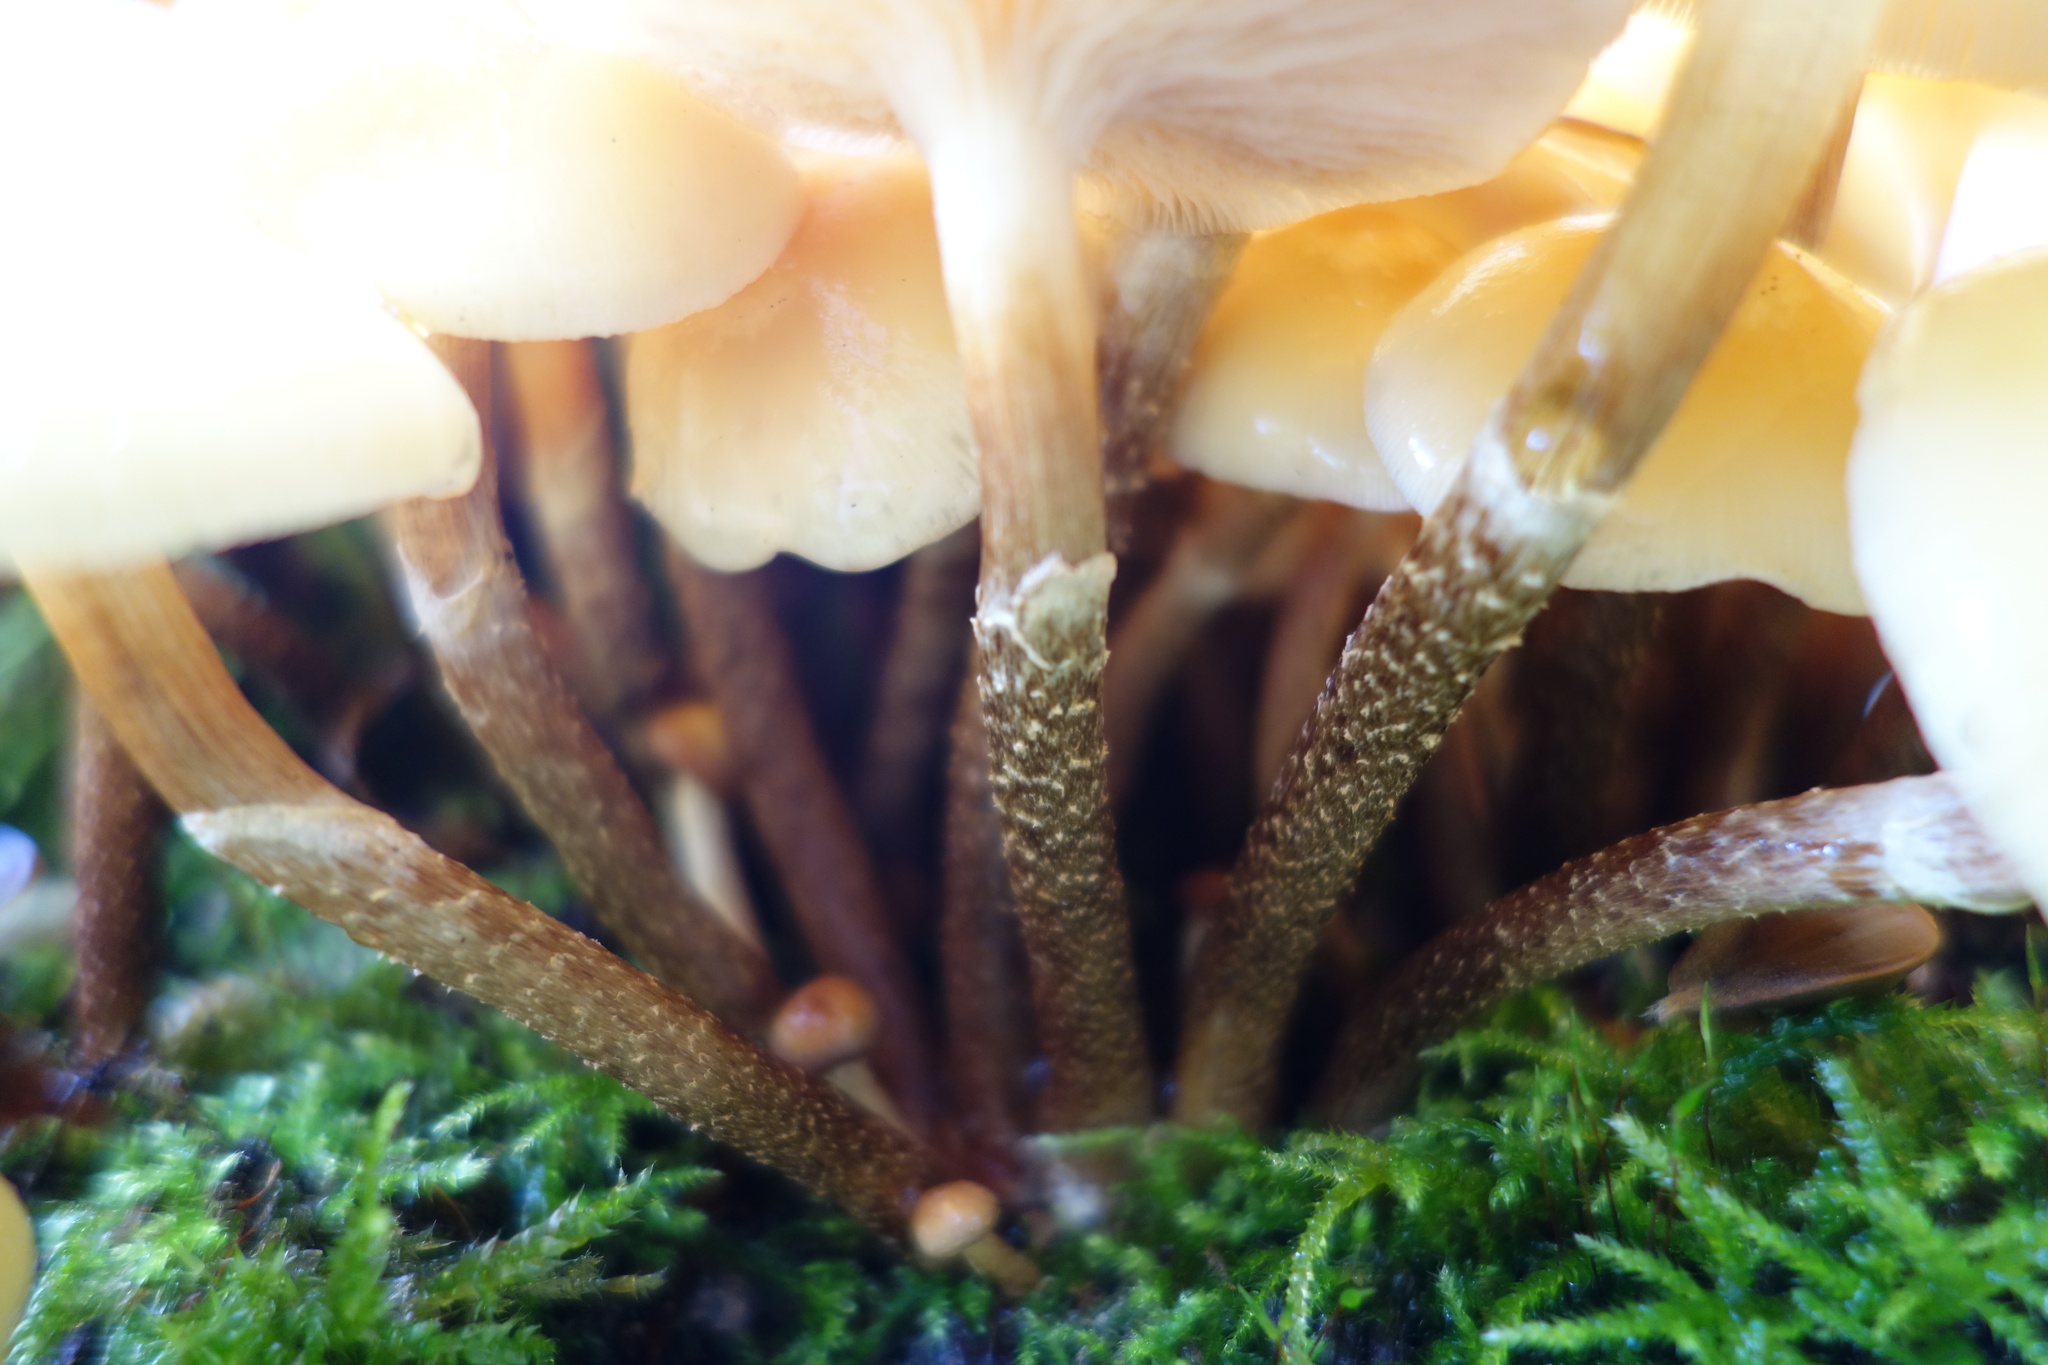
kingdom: Fungi
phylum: Basidiomycota
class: Agaricomycetes
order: Agaricales
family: Strophariaceae
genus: Kuehneromyces
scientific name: Kuehneromyces mutabilis
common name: Sheathed woodtuft
